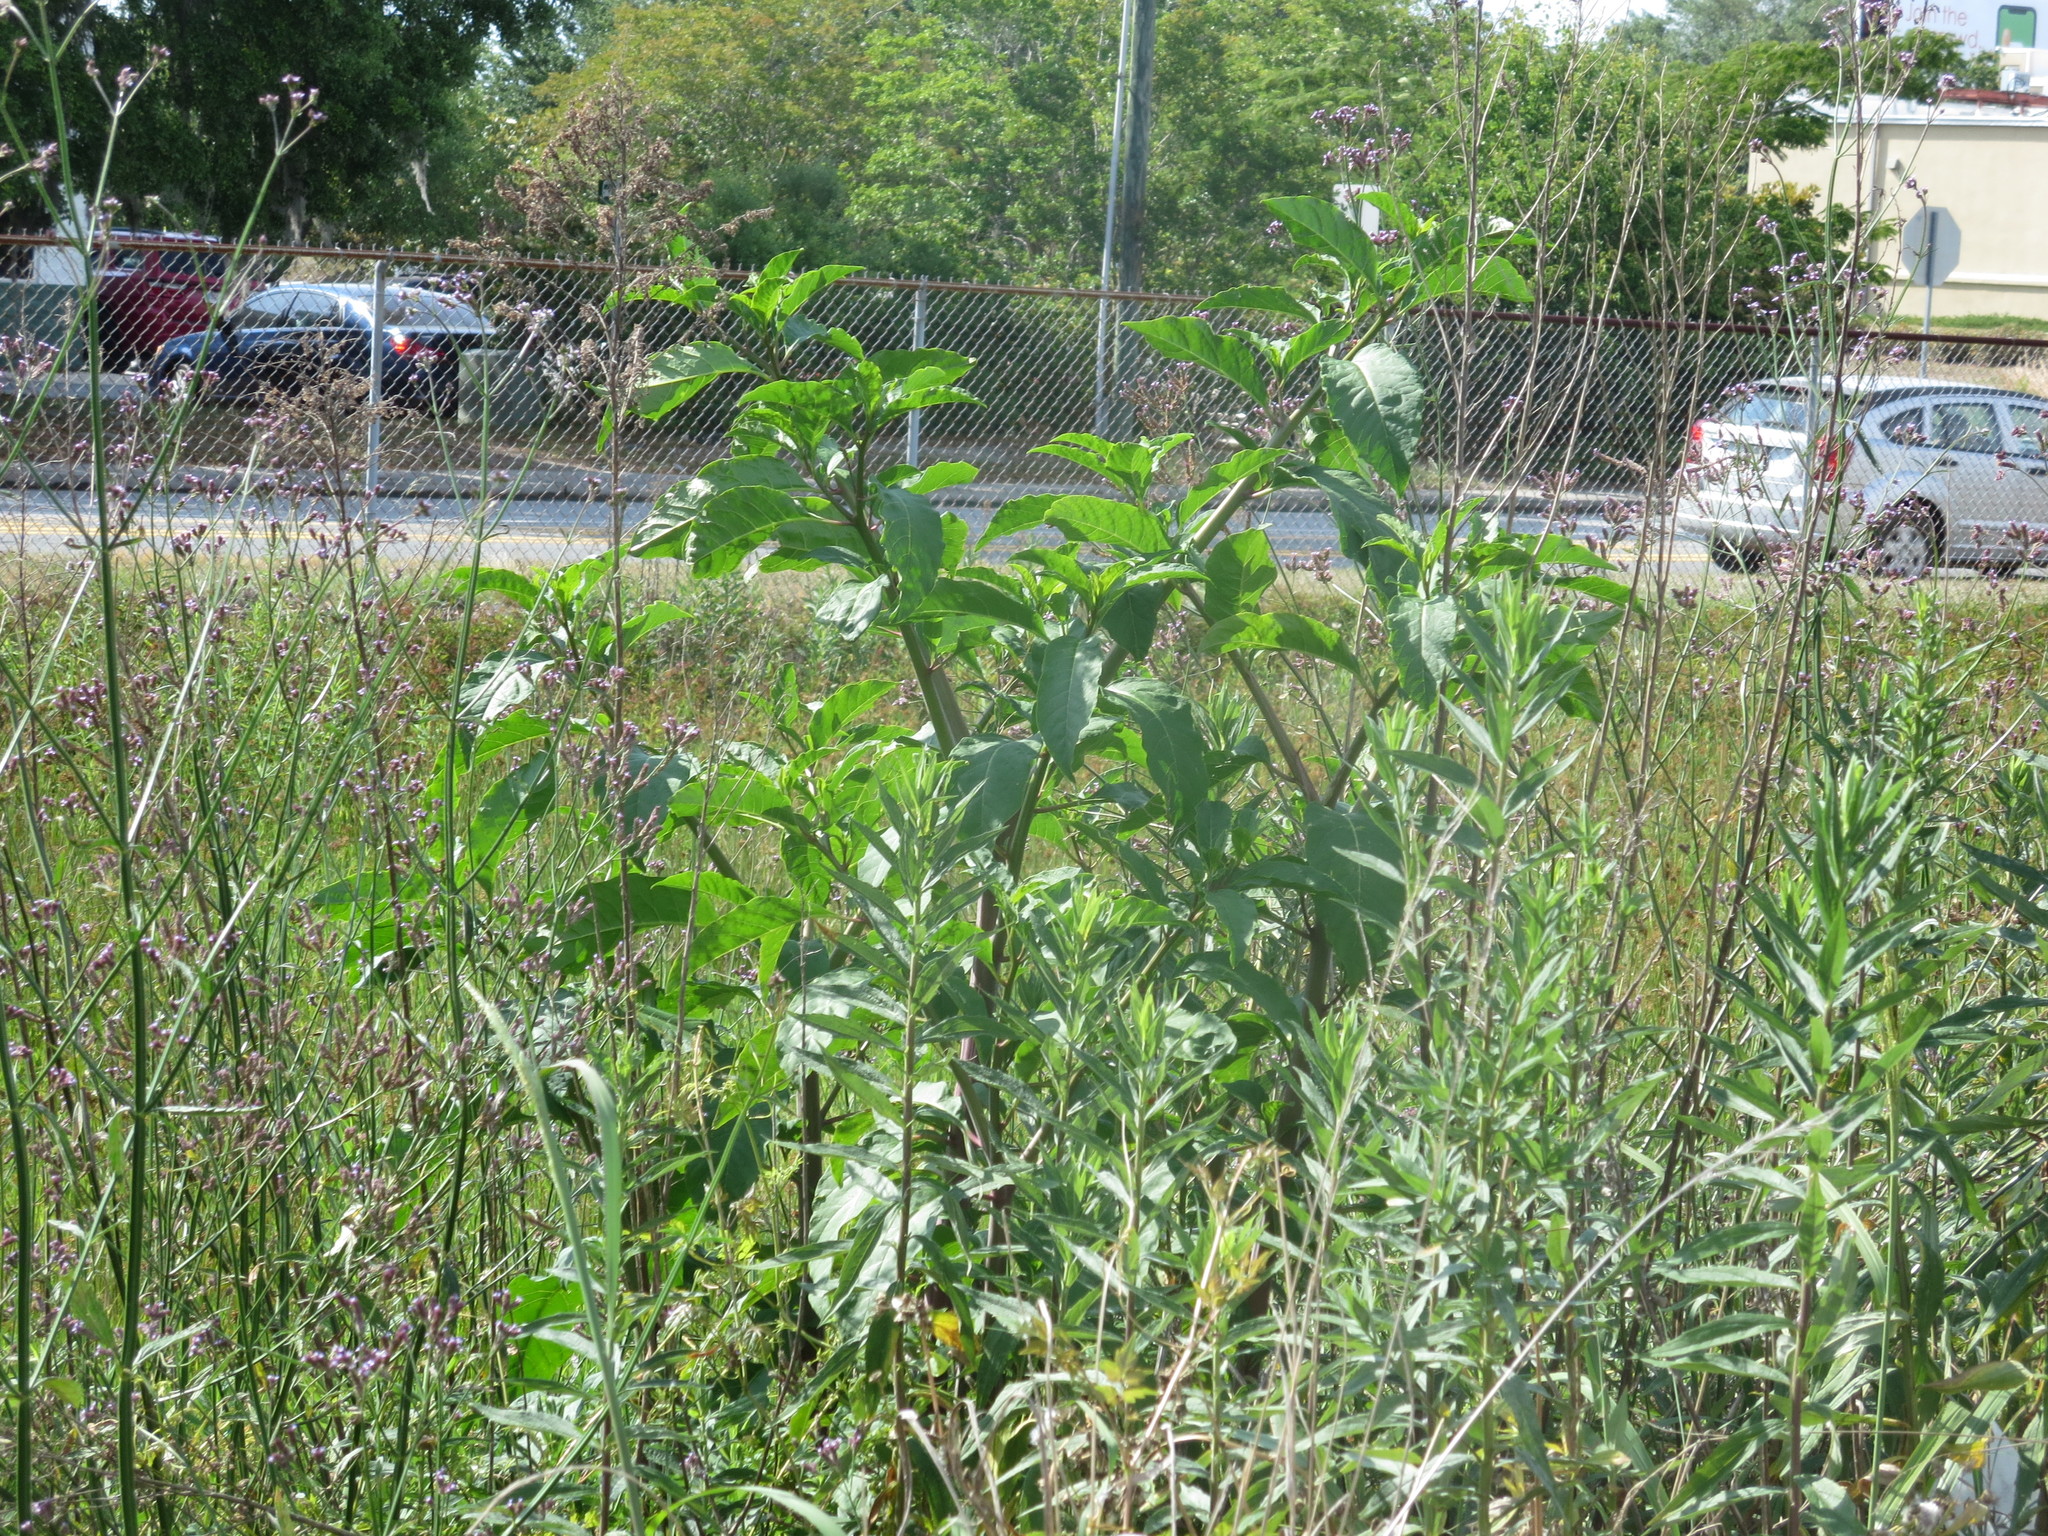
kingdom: Plantae
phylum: Tracheophyta
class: Magnoliopsida
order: Caryophyllales
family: Phytolaccaceae
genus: Phytolacca
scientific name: Phytolacca americana
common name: American pokeweed
